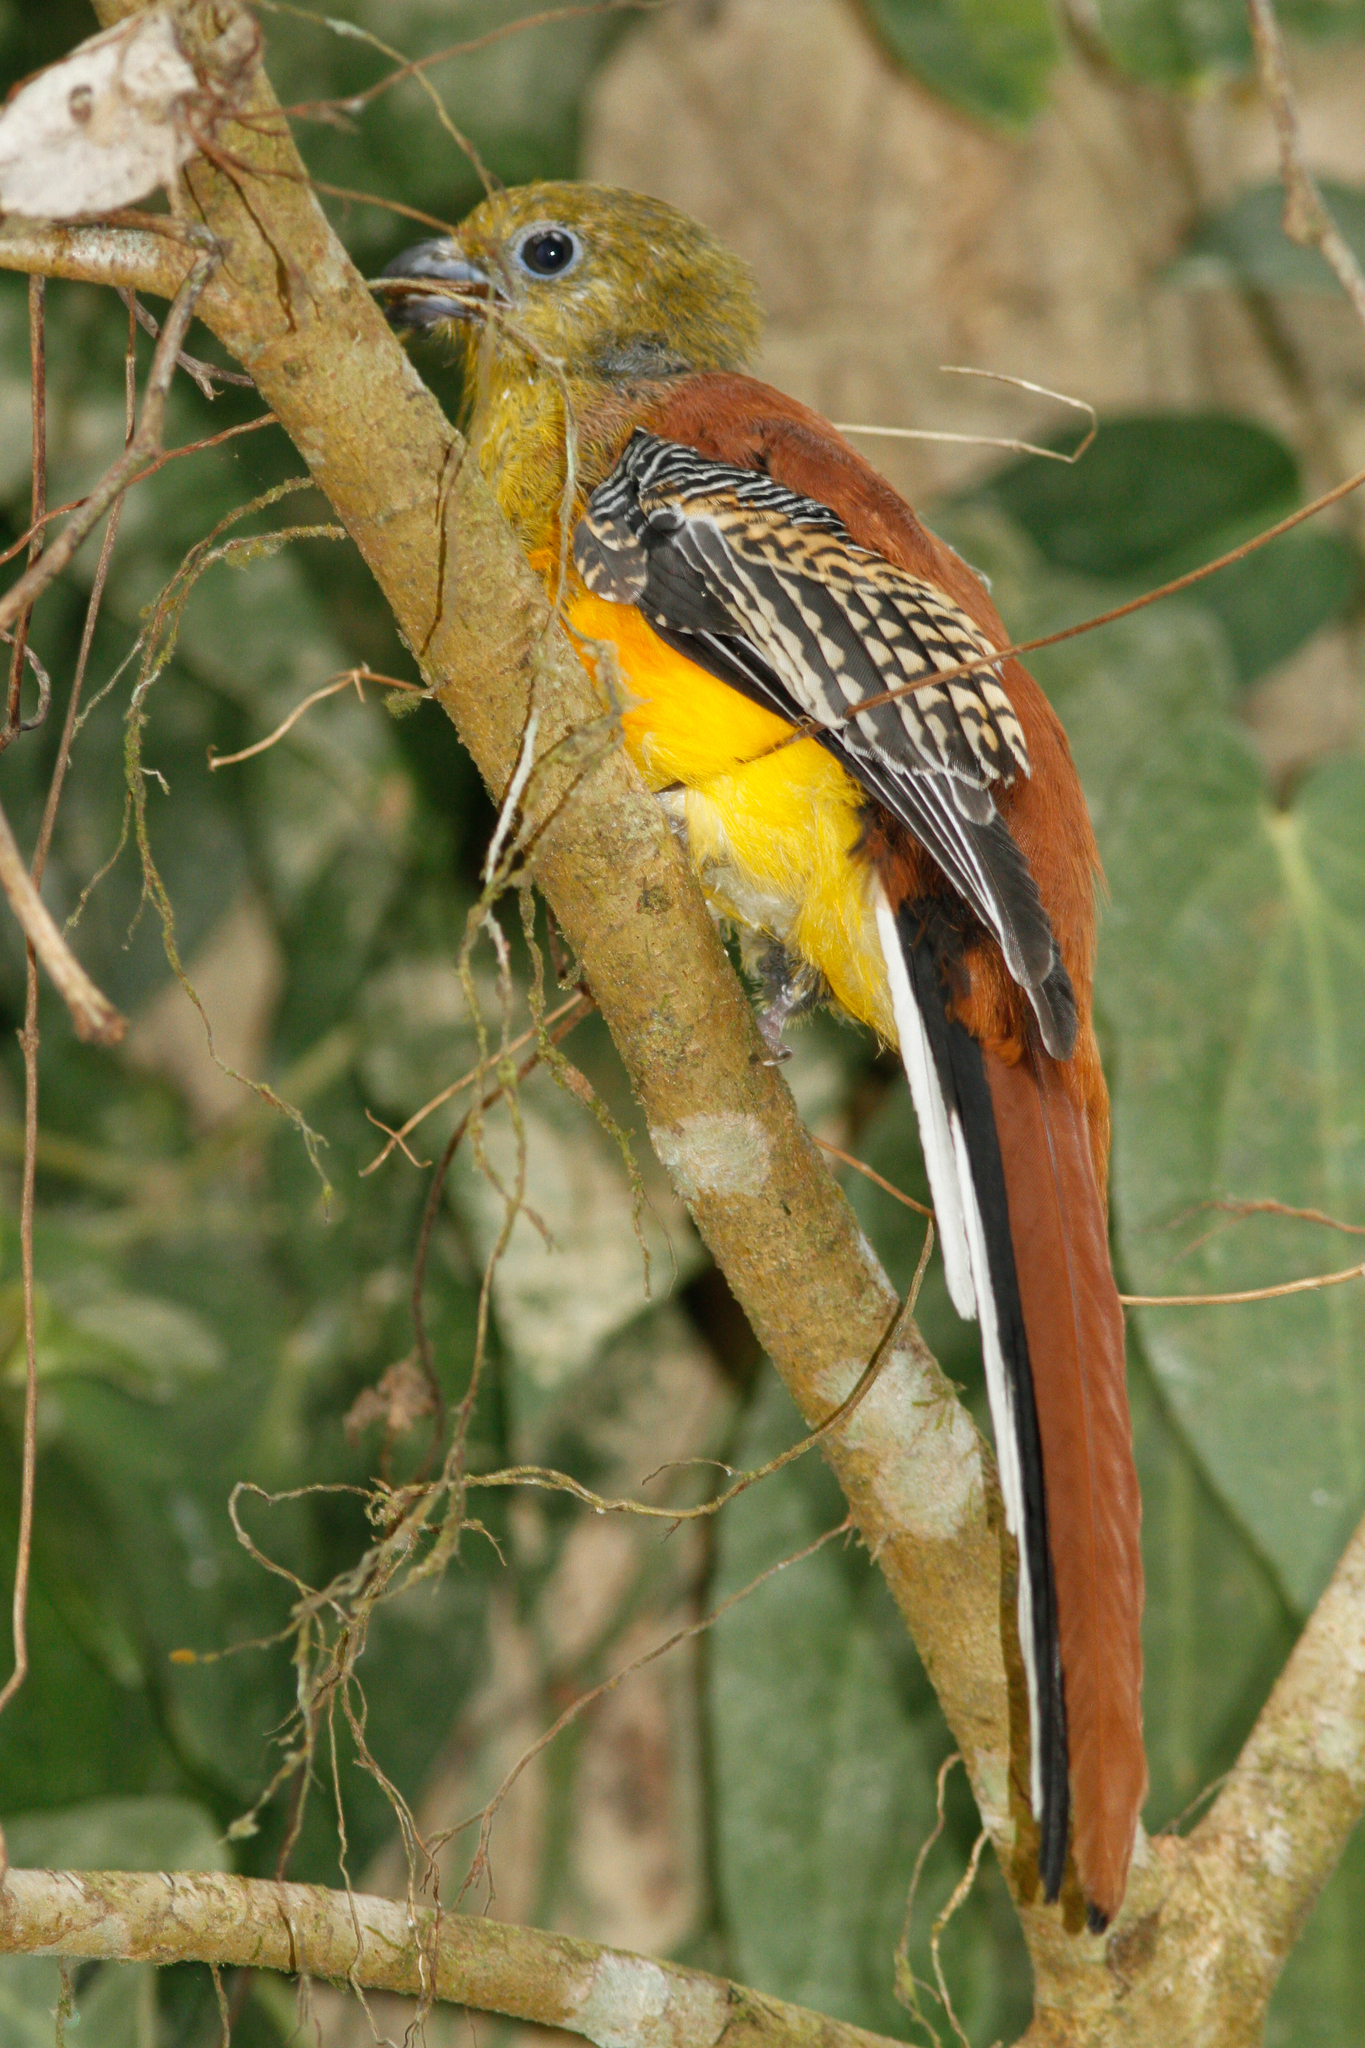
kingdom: Animalia
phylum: Chordata
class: Aves
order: Trogoniformes
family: Trogonidae
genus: Harpactes
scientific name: Harpactes oreskios
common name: Orange-breasted trogon
